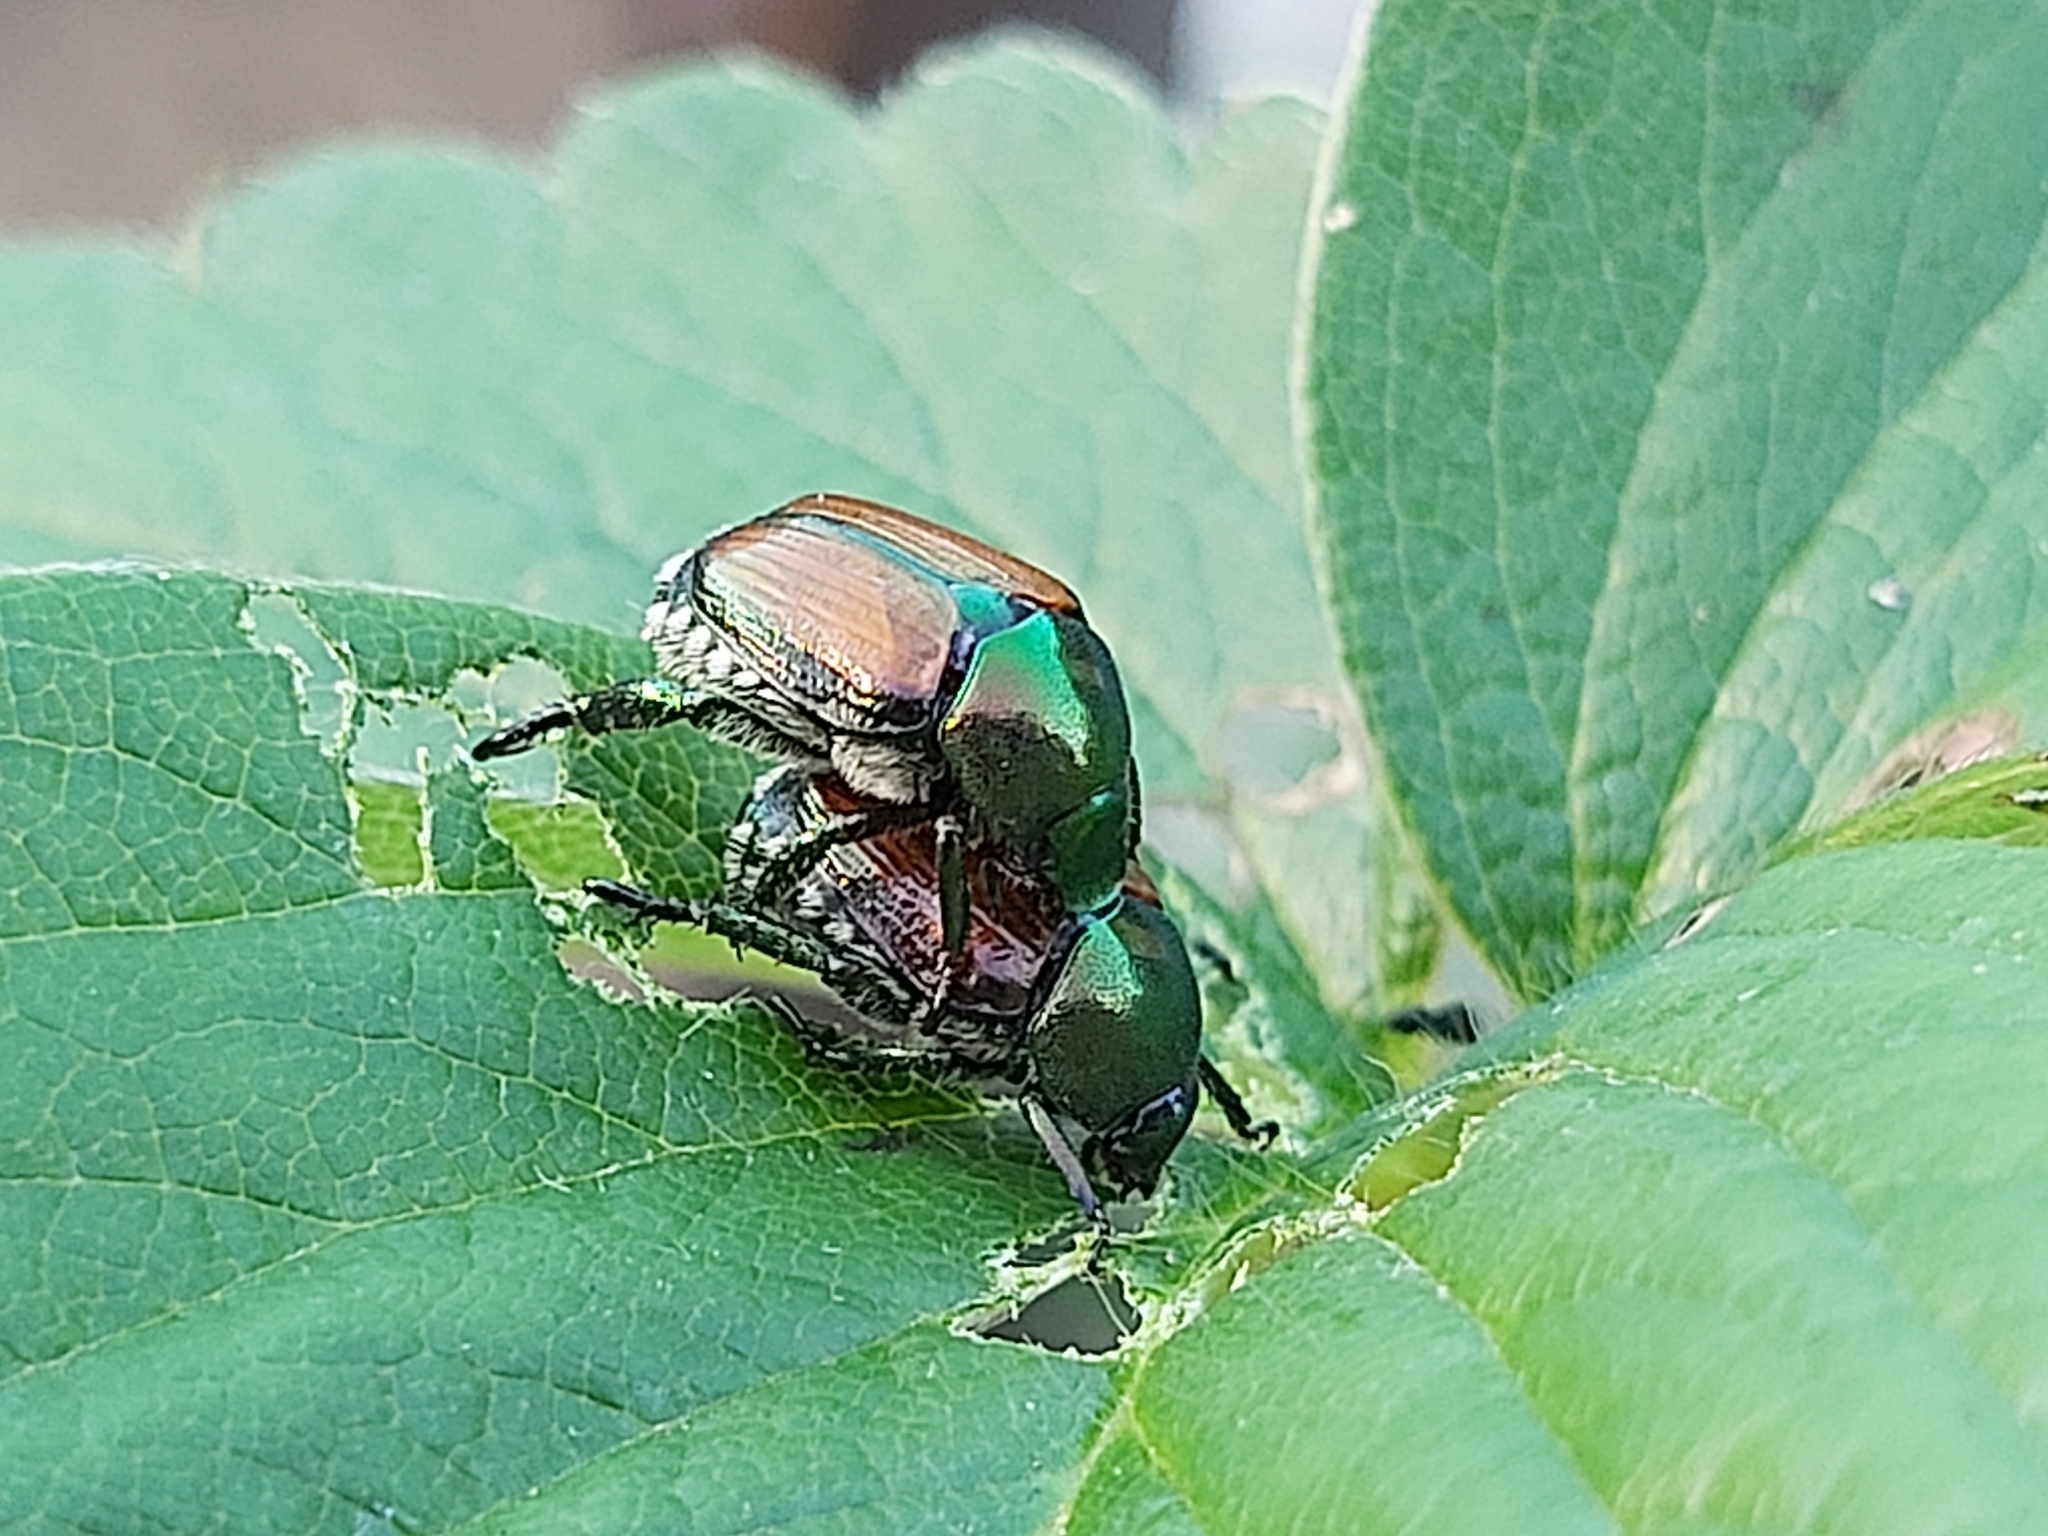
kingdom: Animalia
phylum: Arthropoda
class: Insecta
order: Coleoptera
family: Scarabaeidae
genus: Popillia
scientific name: Popillia japonica
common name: Japanese beetle
